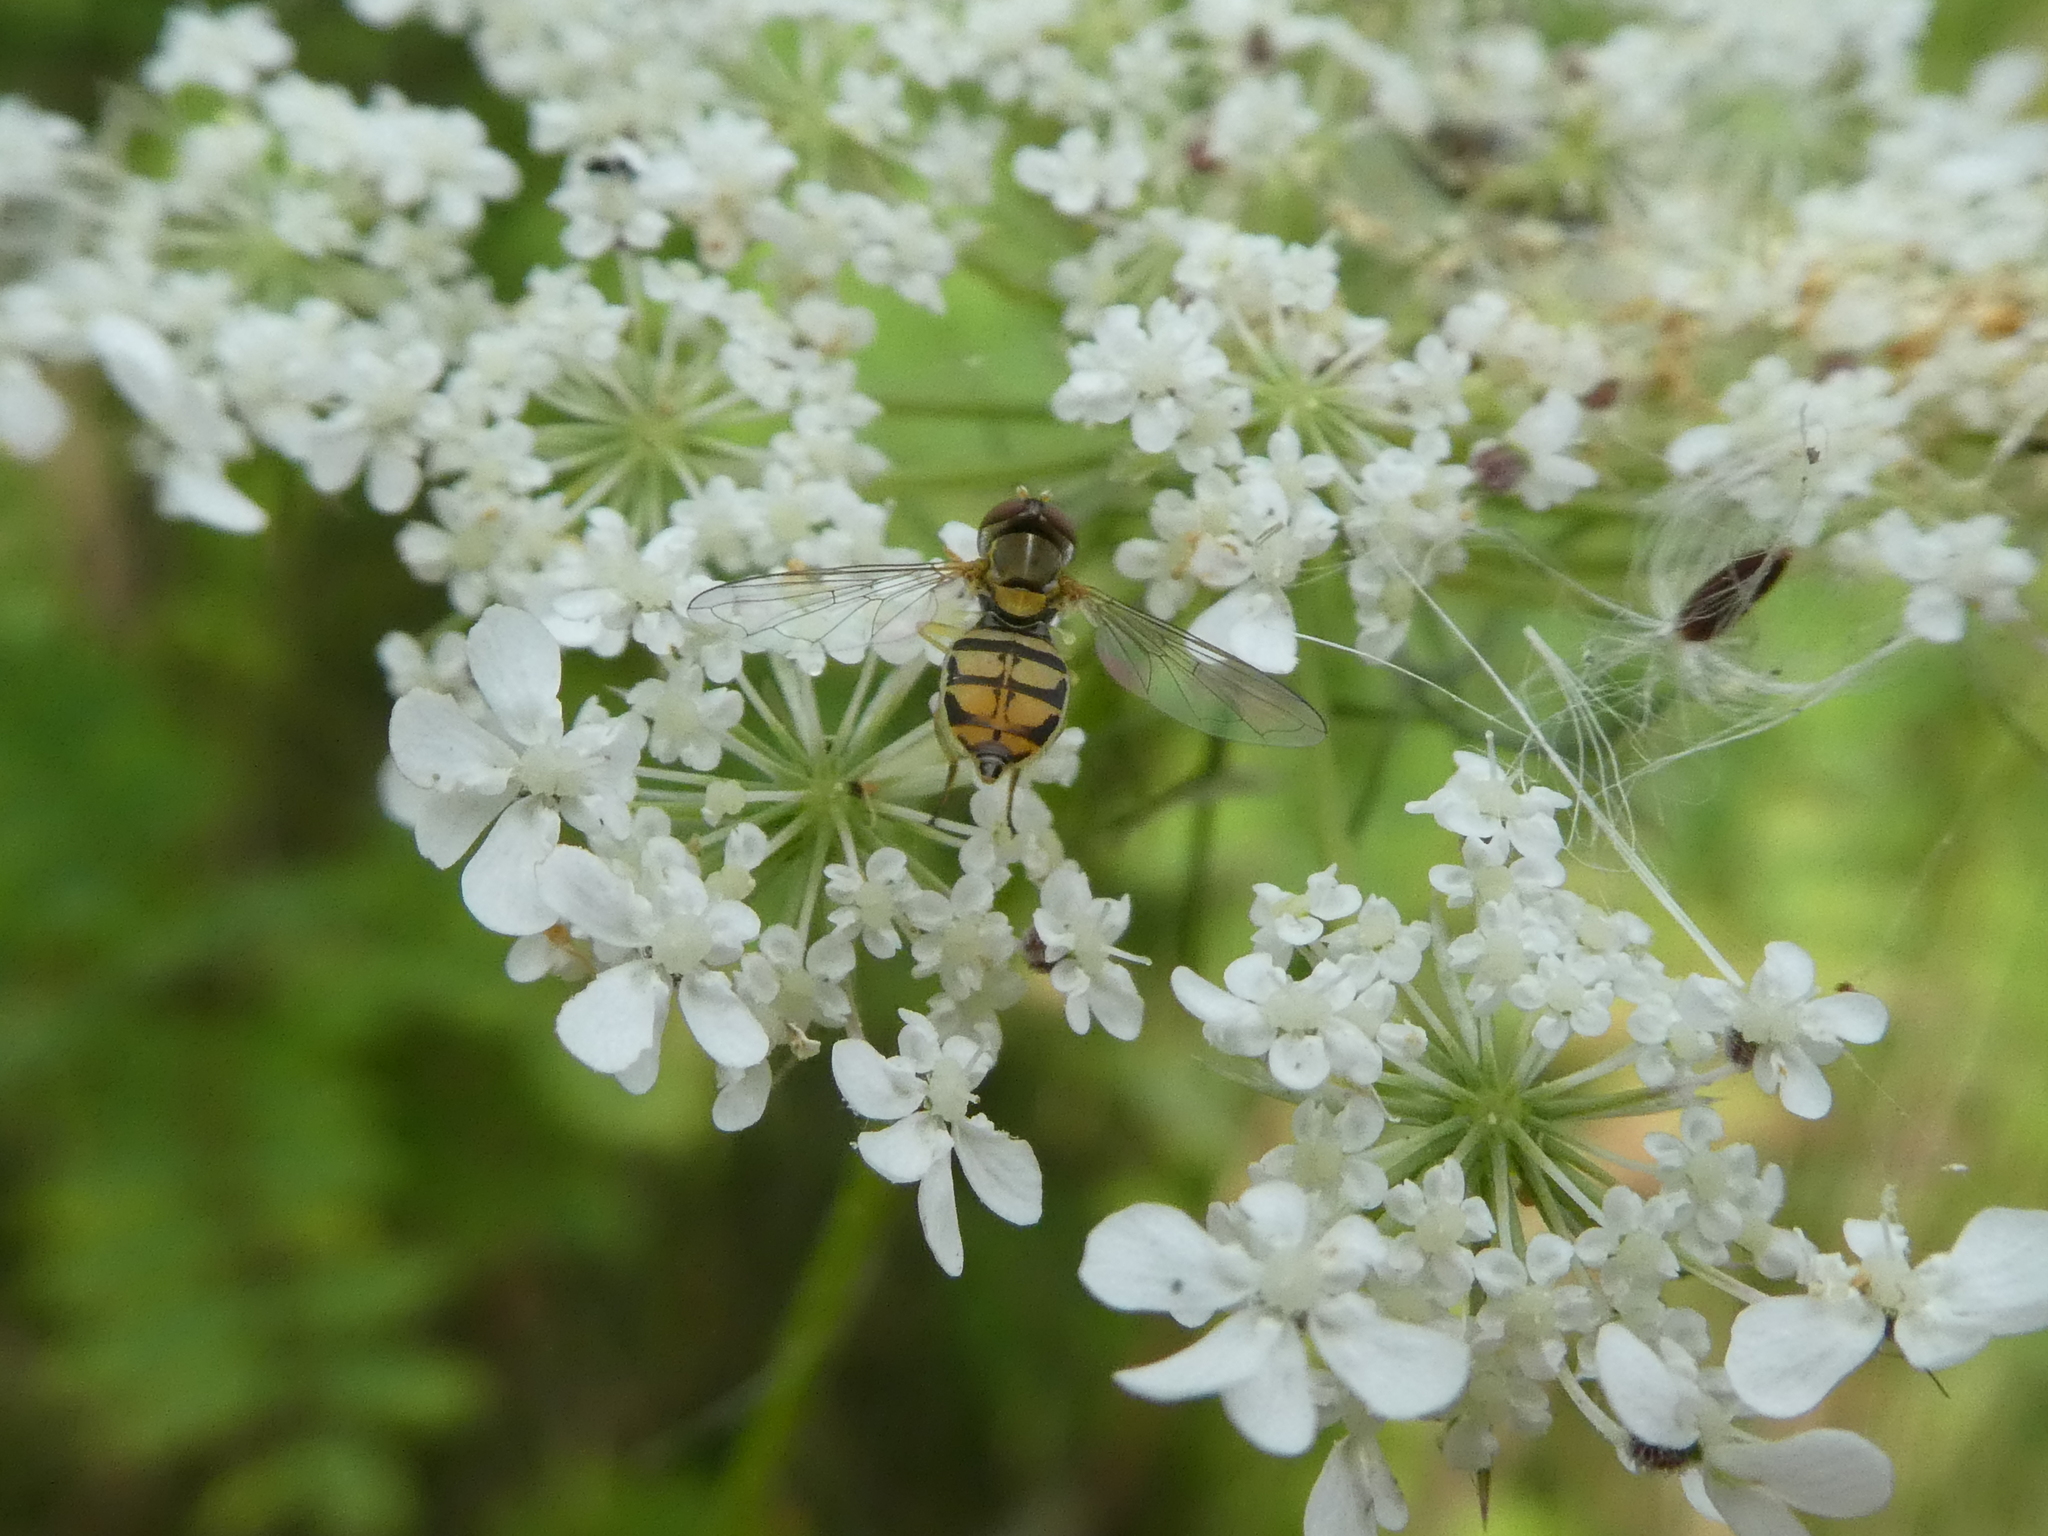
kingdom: Animalia
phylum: Arthropoda
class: Insecta
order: Diptera
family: Syrphidae
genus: Toxomerus
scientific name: Toxomerus marginatus
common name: Syrphid fly
